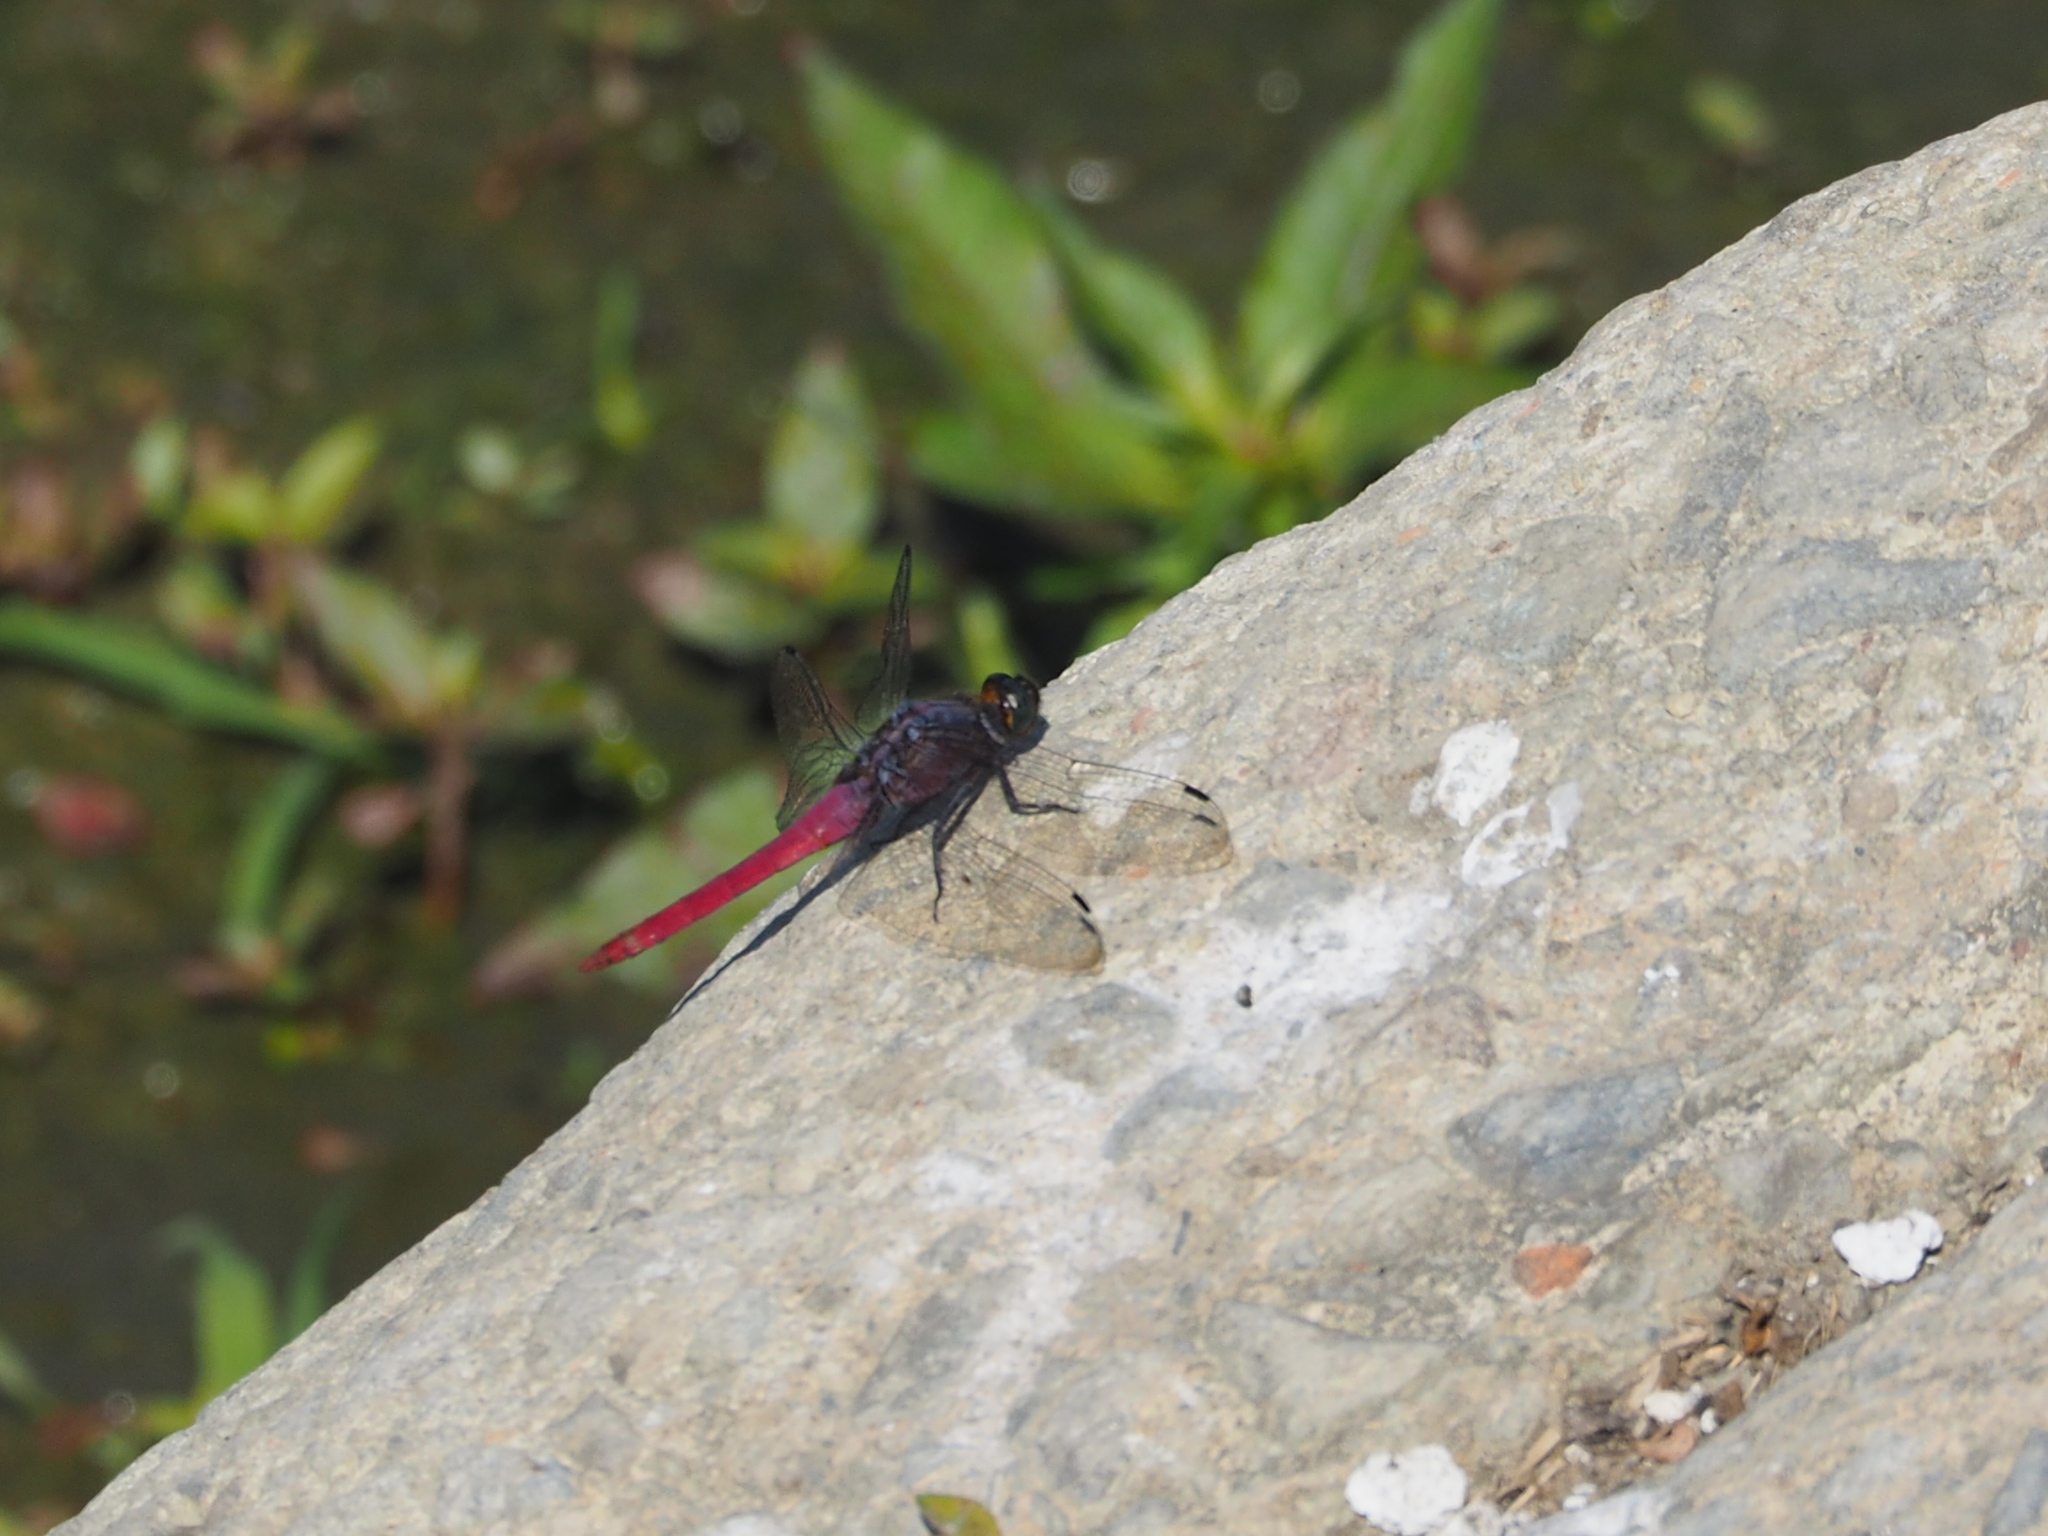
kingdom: Animalia
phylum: Arthropoda
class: Insecta
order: Odonata
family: Libellulidae
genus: Orthetrum
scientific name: Orthetrum pruinosum
